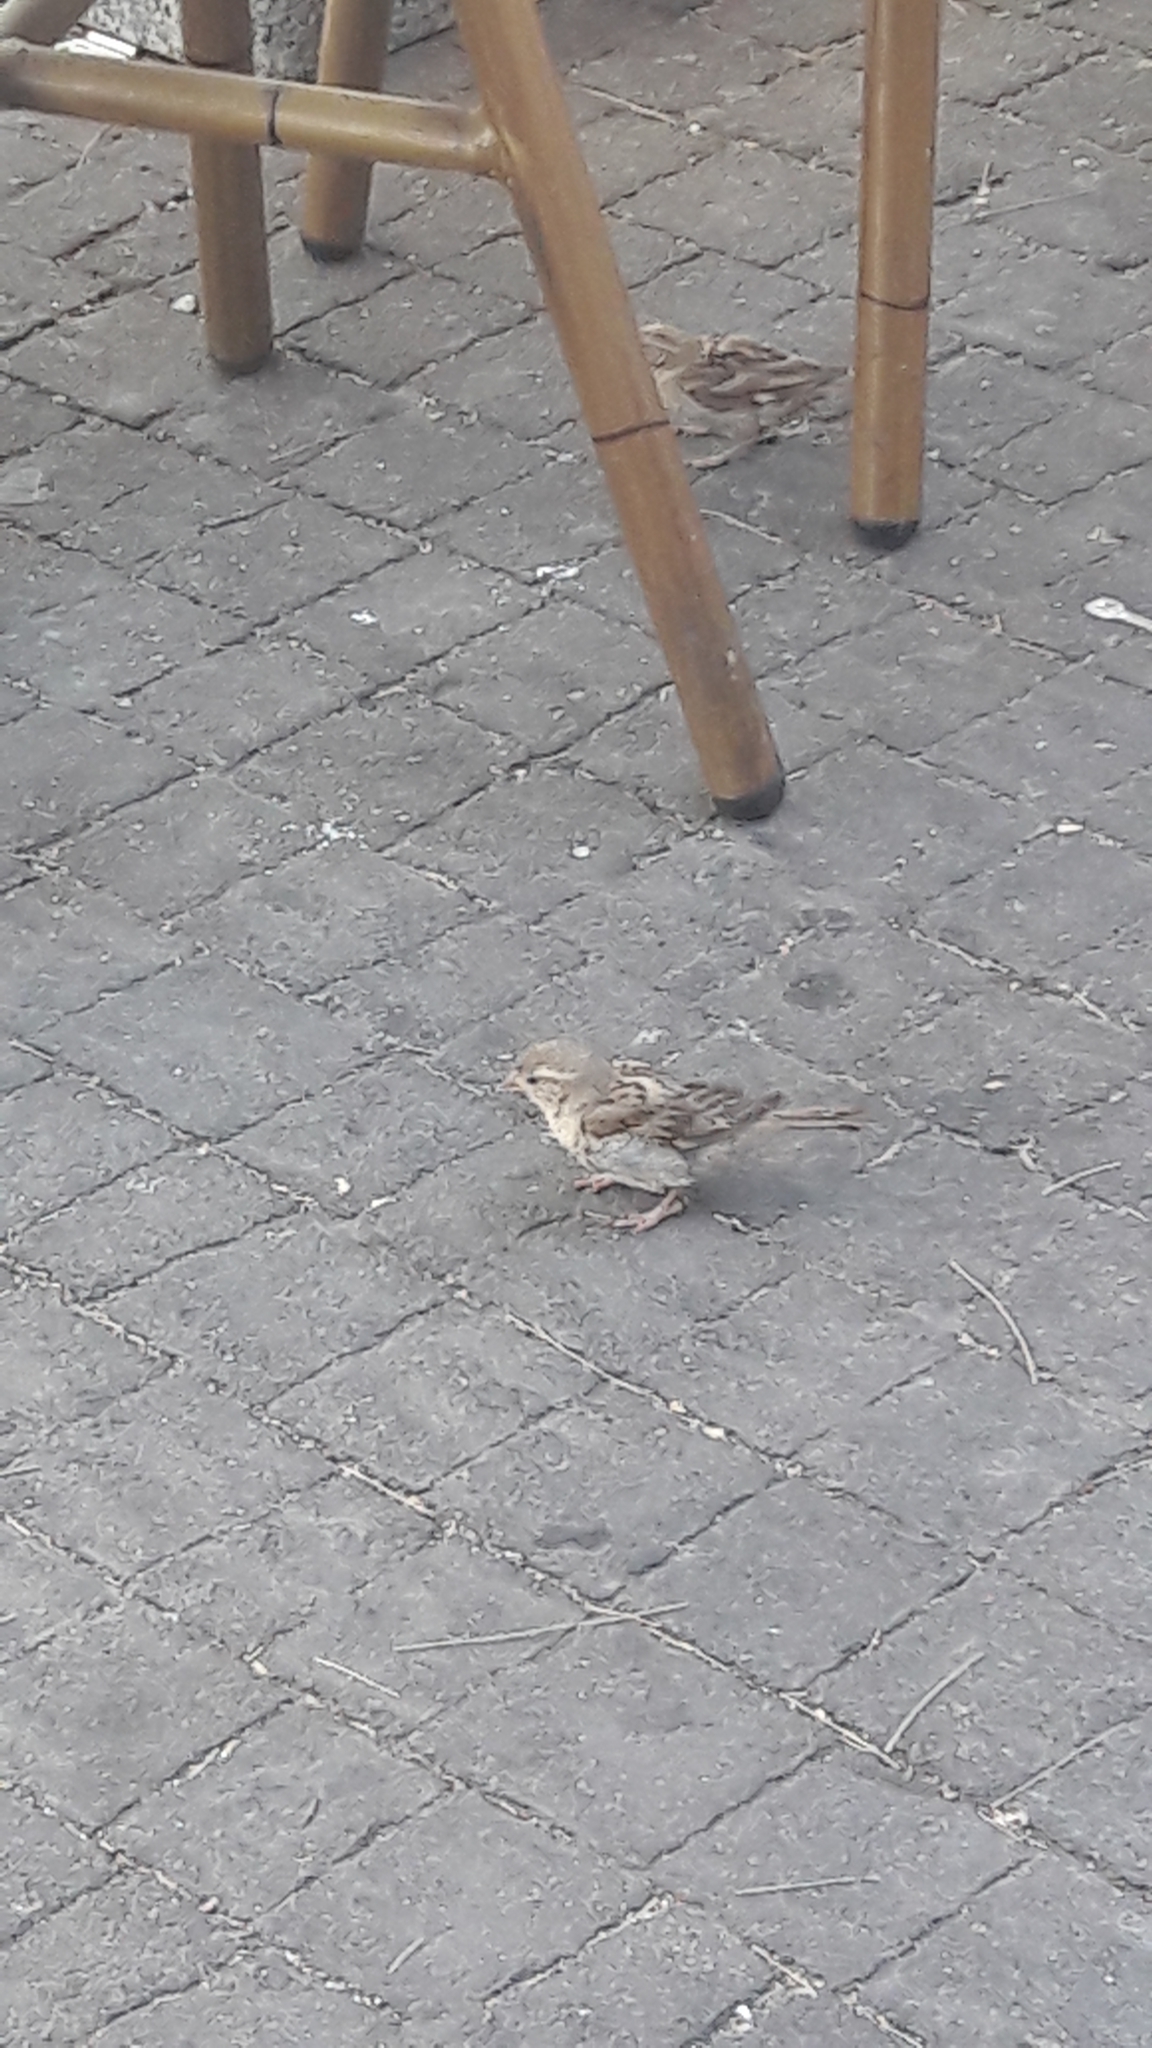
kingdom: Animalia
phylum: Chordata
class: Aves
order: Passeriformes
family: Passeridae
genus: Passer
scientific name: Passer domesticus
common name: House sparrow
